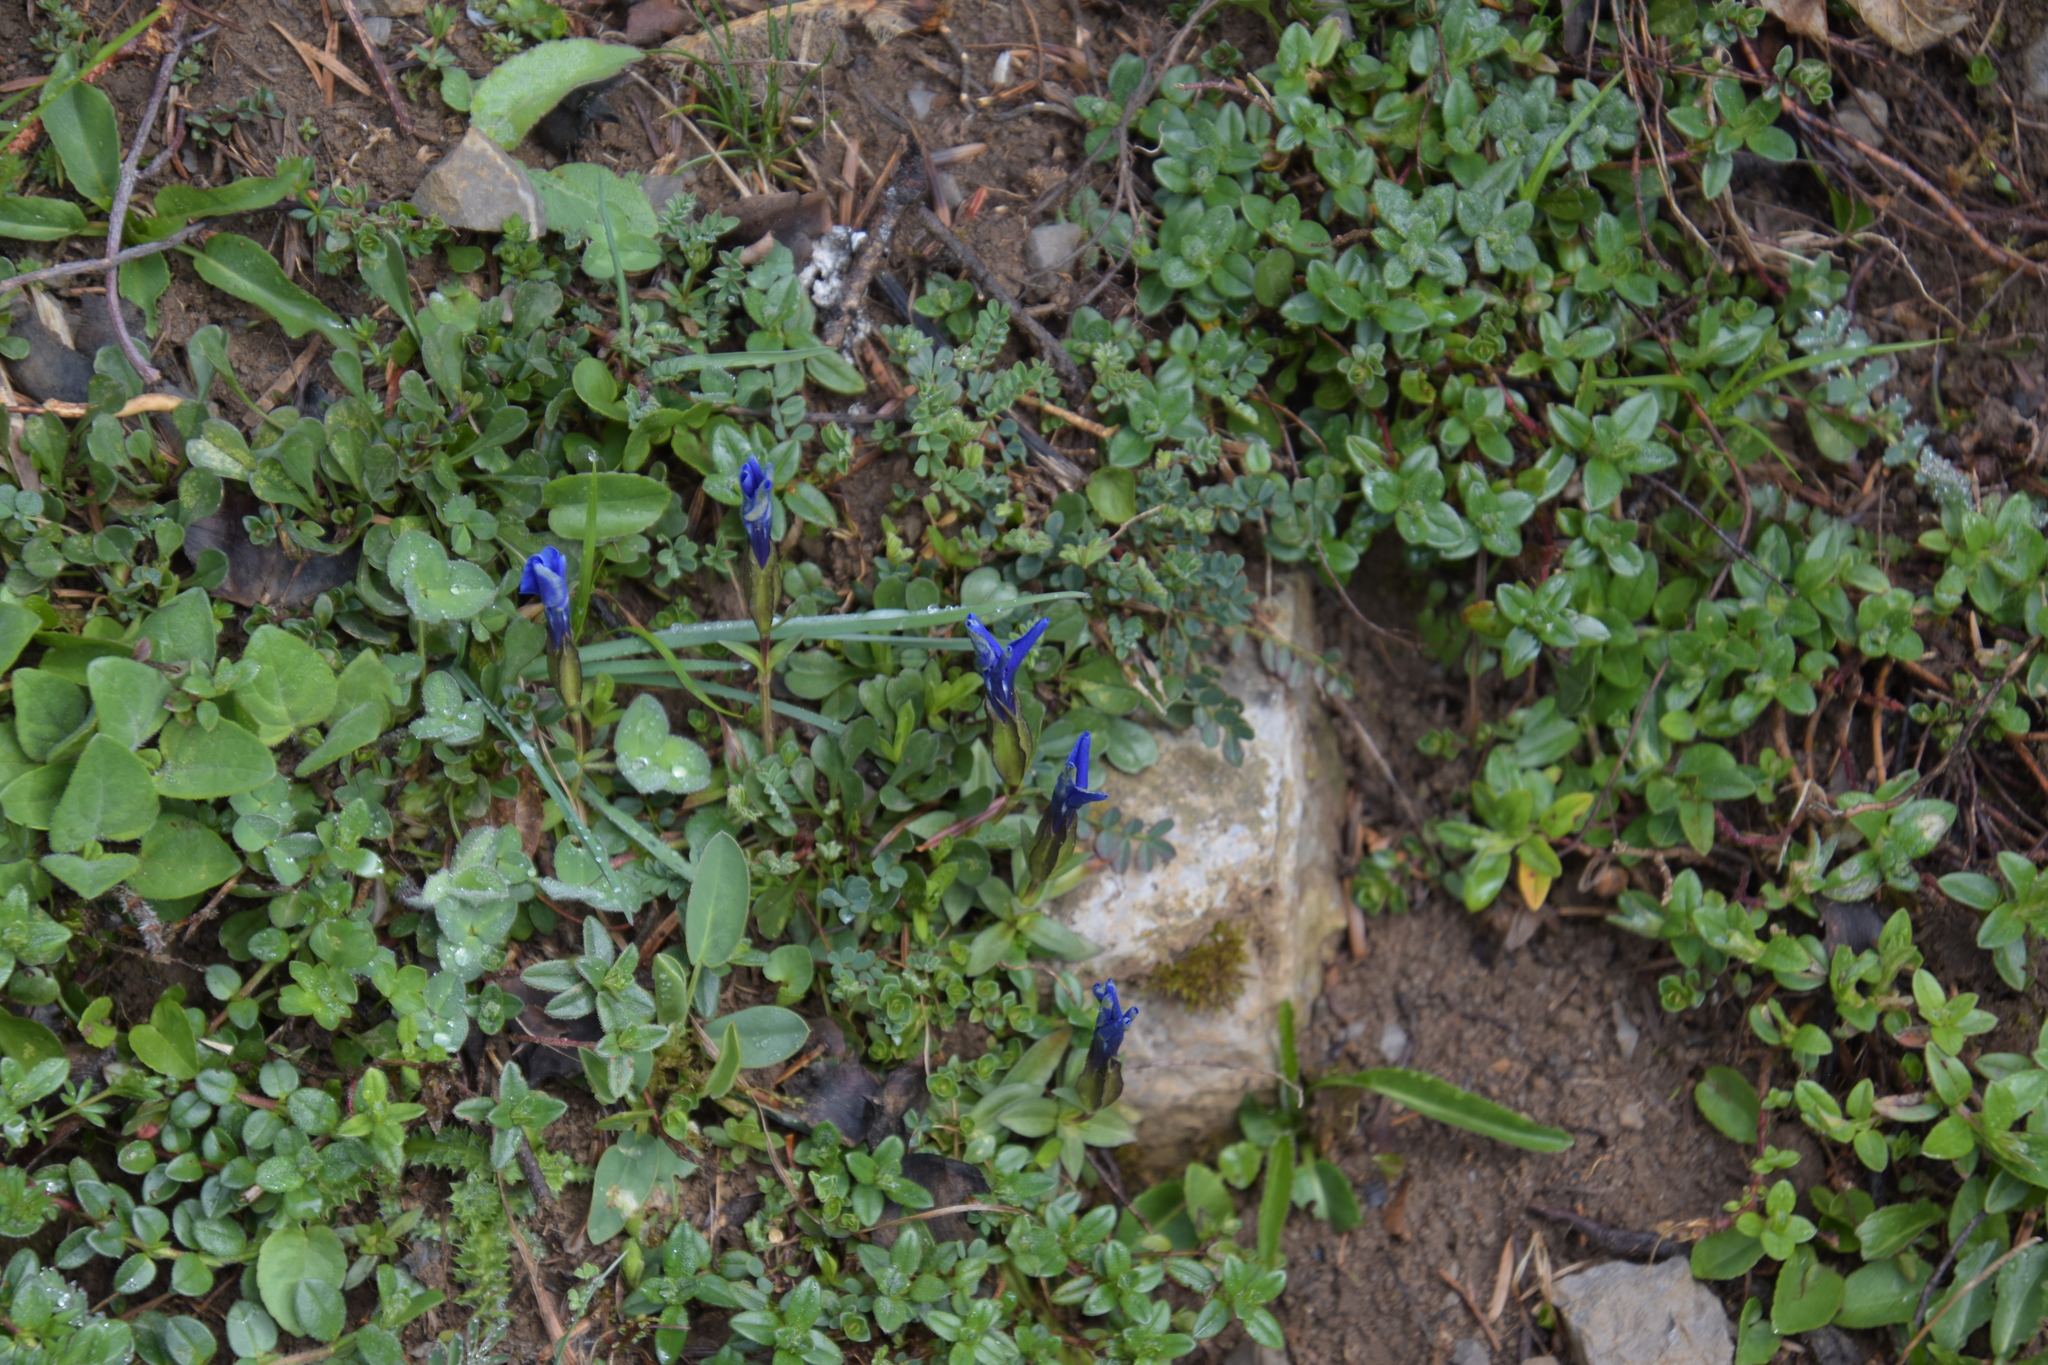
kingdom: Plantae
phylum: Tracheophyta
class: Magnoliopsida
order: Gentianales
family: Gentianaceae
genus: Gentiana
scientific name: Gentiana verna
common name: Spring gentian
